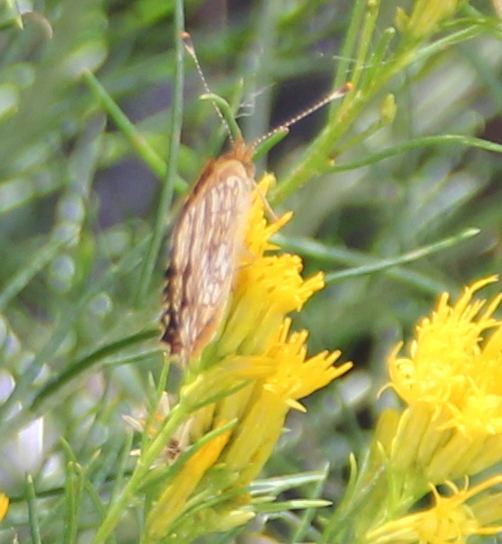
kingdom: Animalia
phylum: Arthropoda
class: Insecta
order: Lepidoptera
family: Nymphalidae
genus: Eresia
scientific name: Eresia aveyrona
